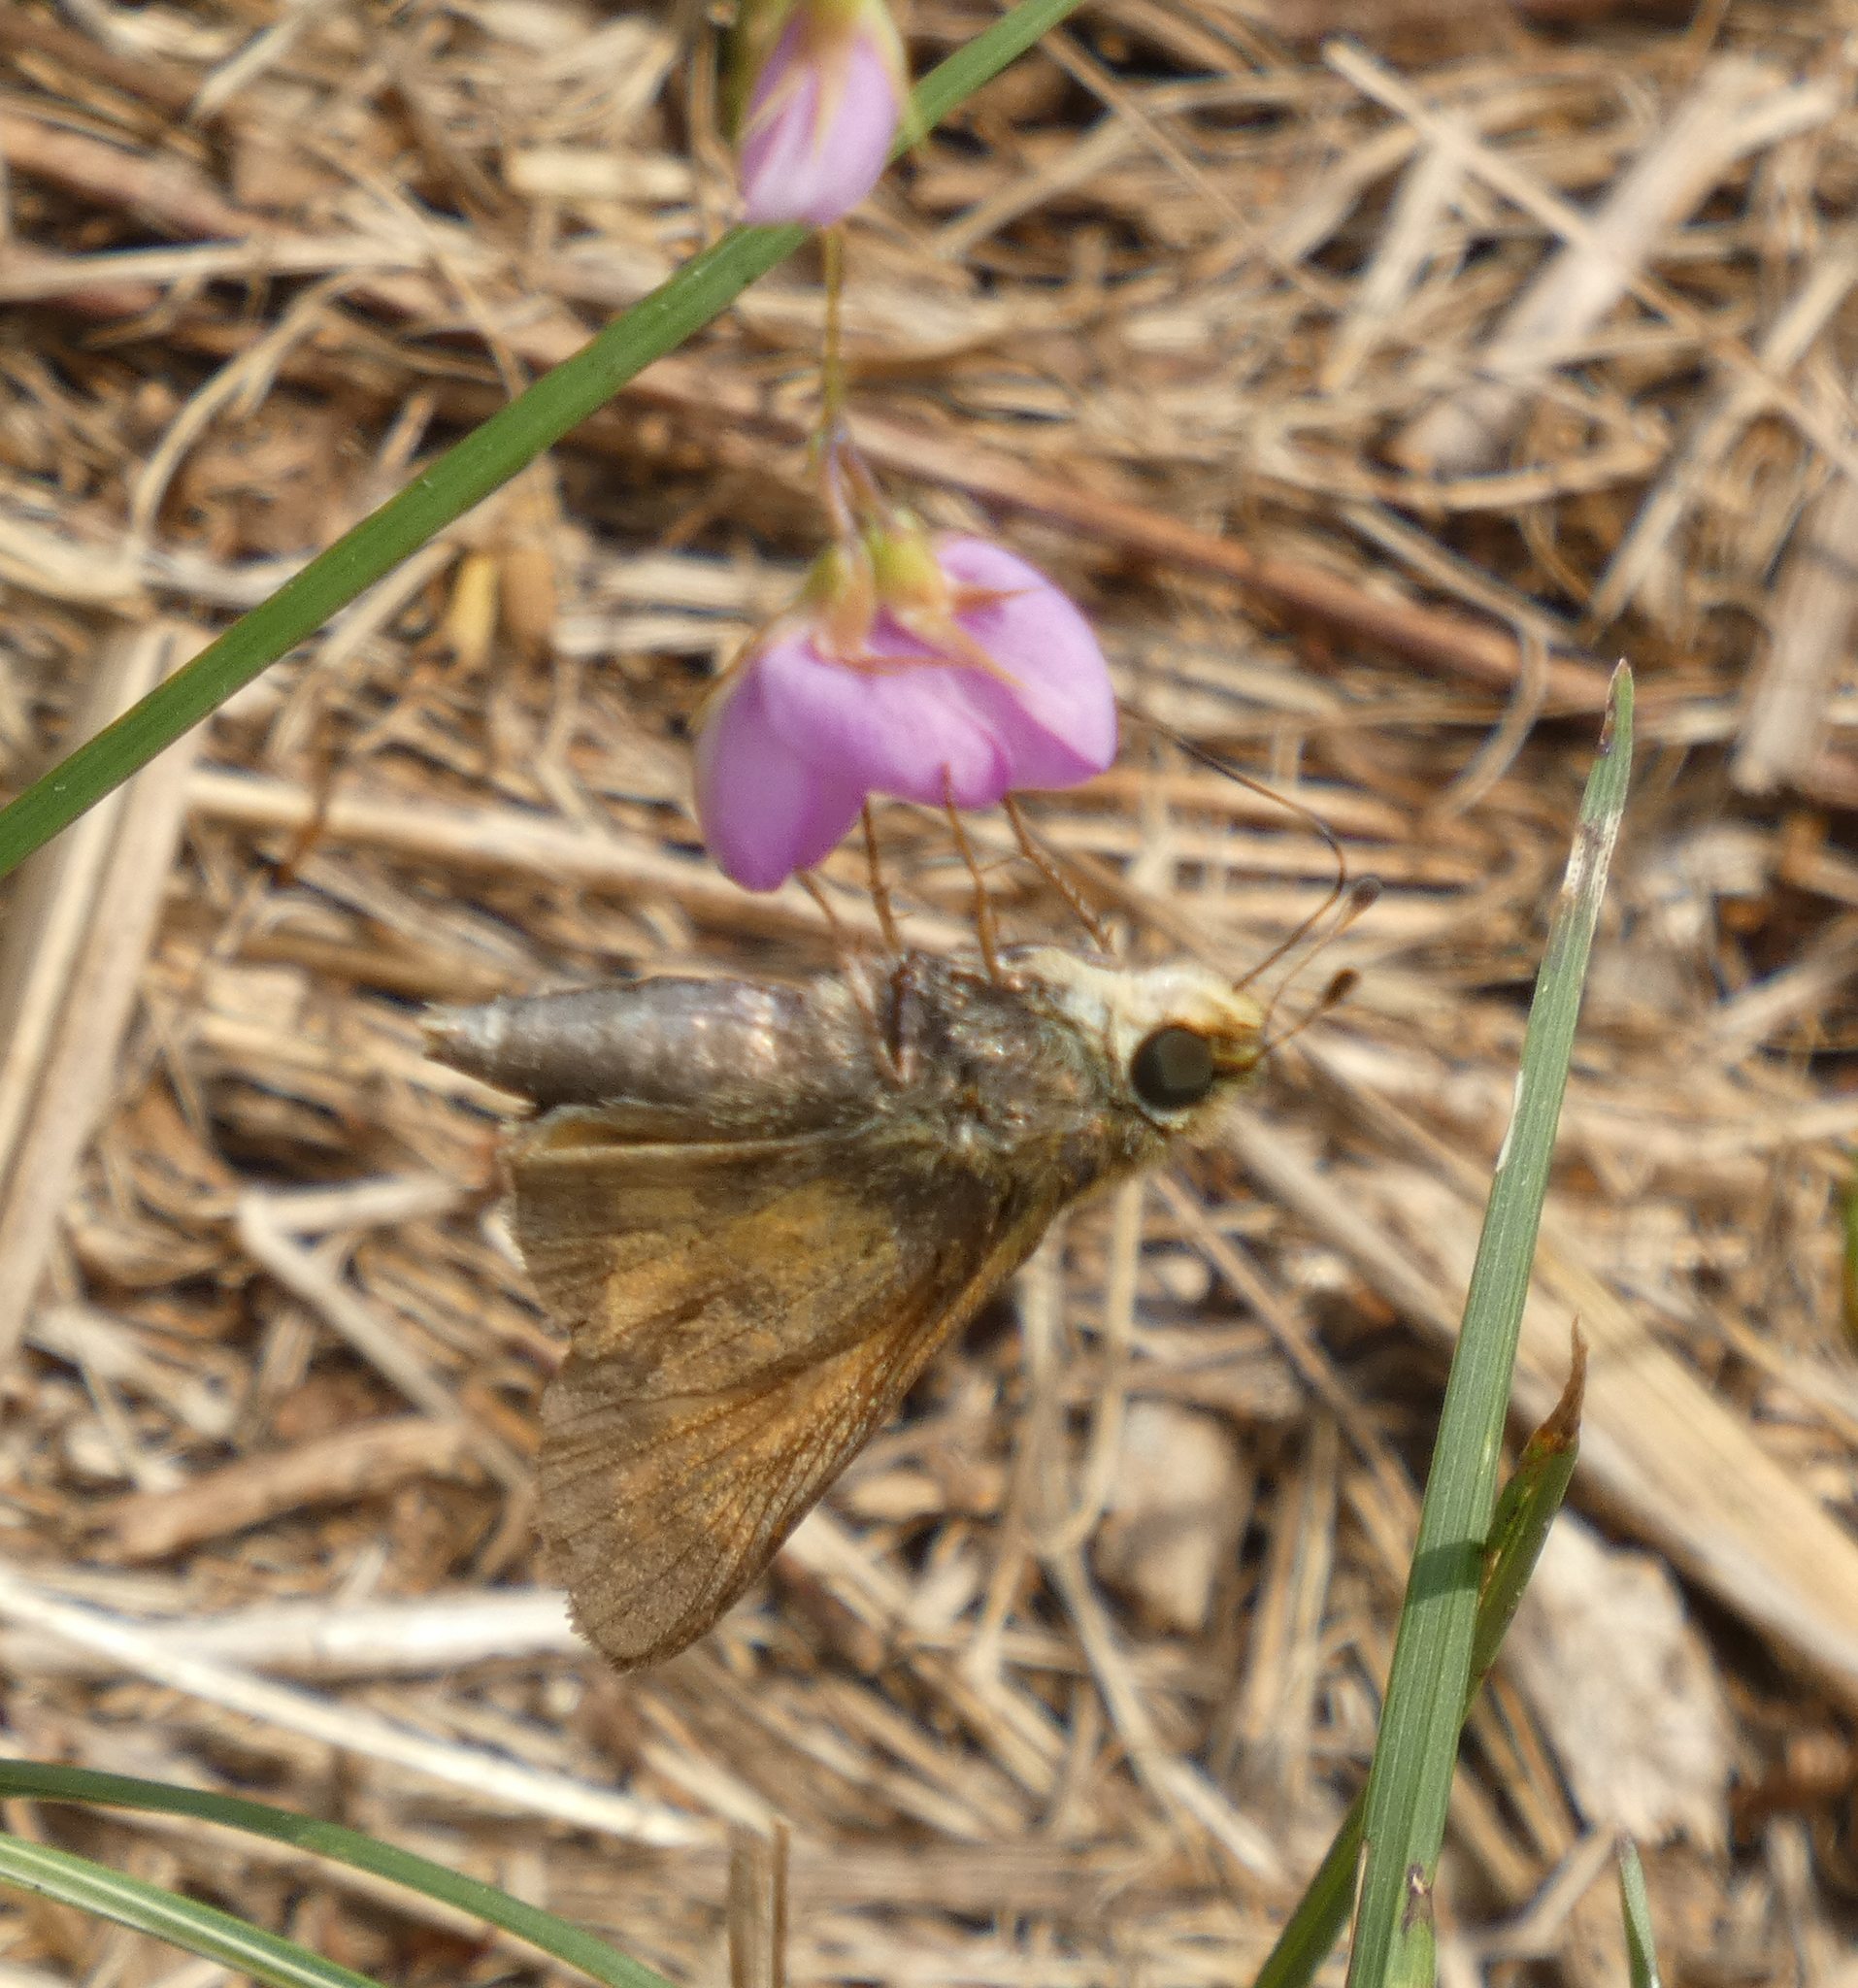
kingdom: Animalia
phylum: Arthropoda
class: Insecta
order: Lepidoptera
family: Hesperiidae
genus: Atalopedes
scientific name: Atalopedes
